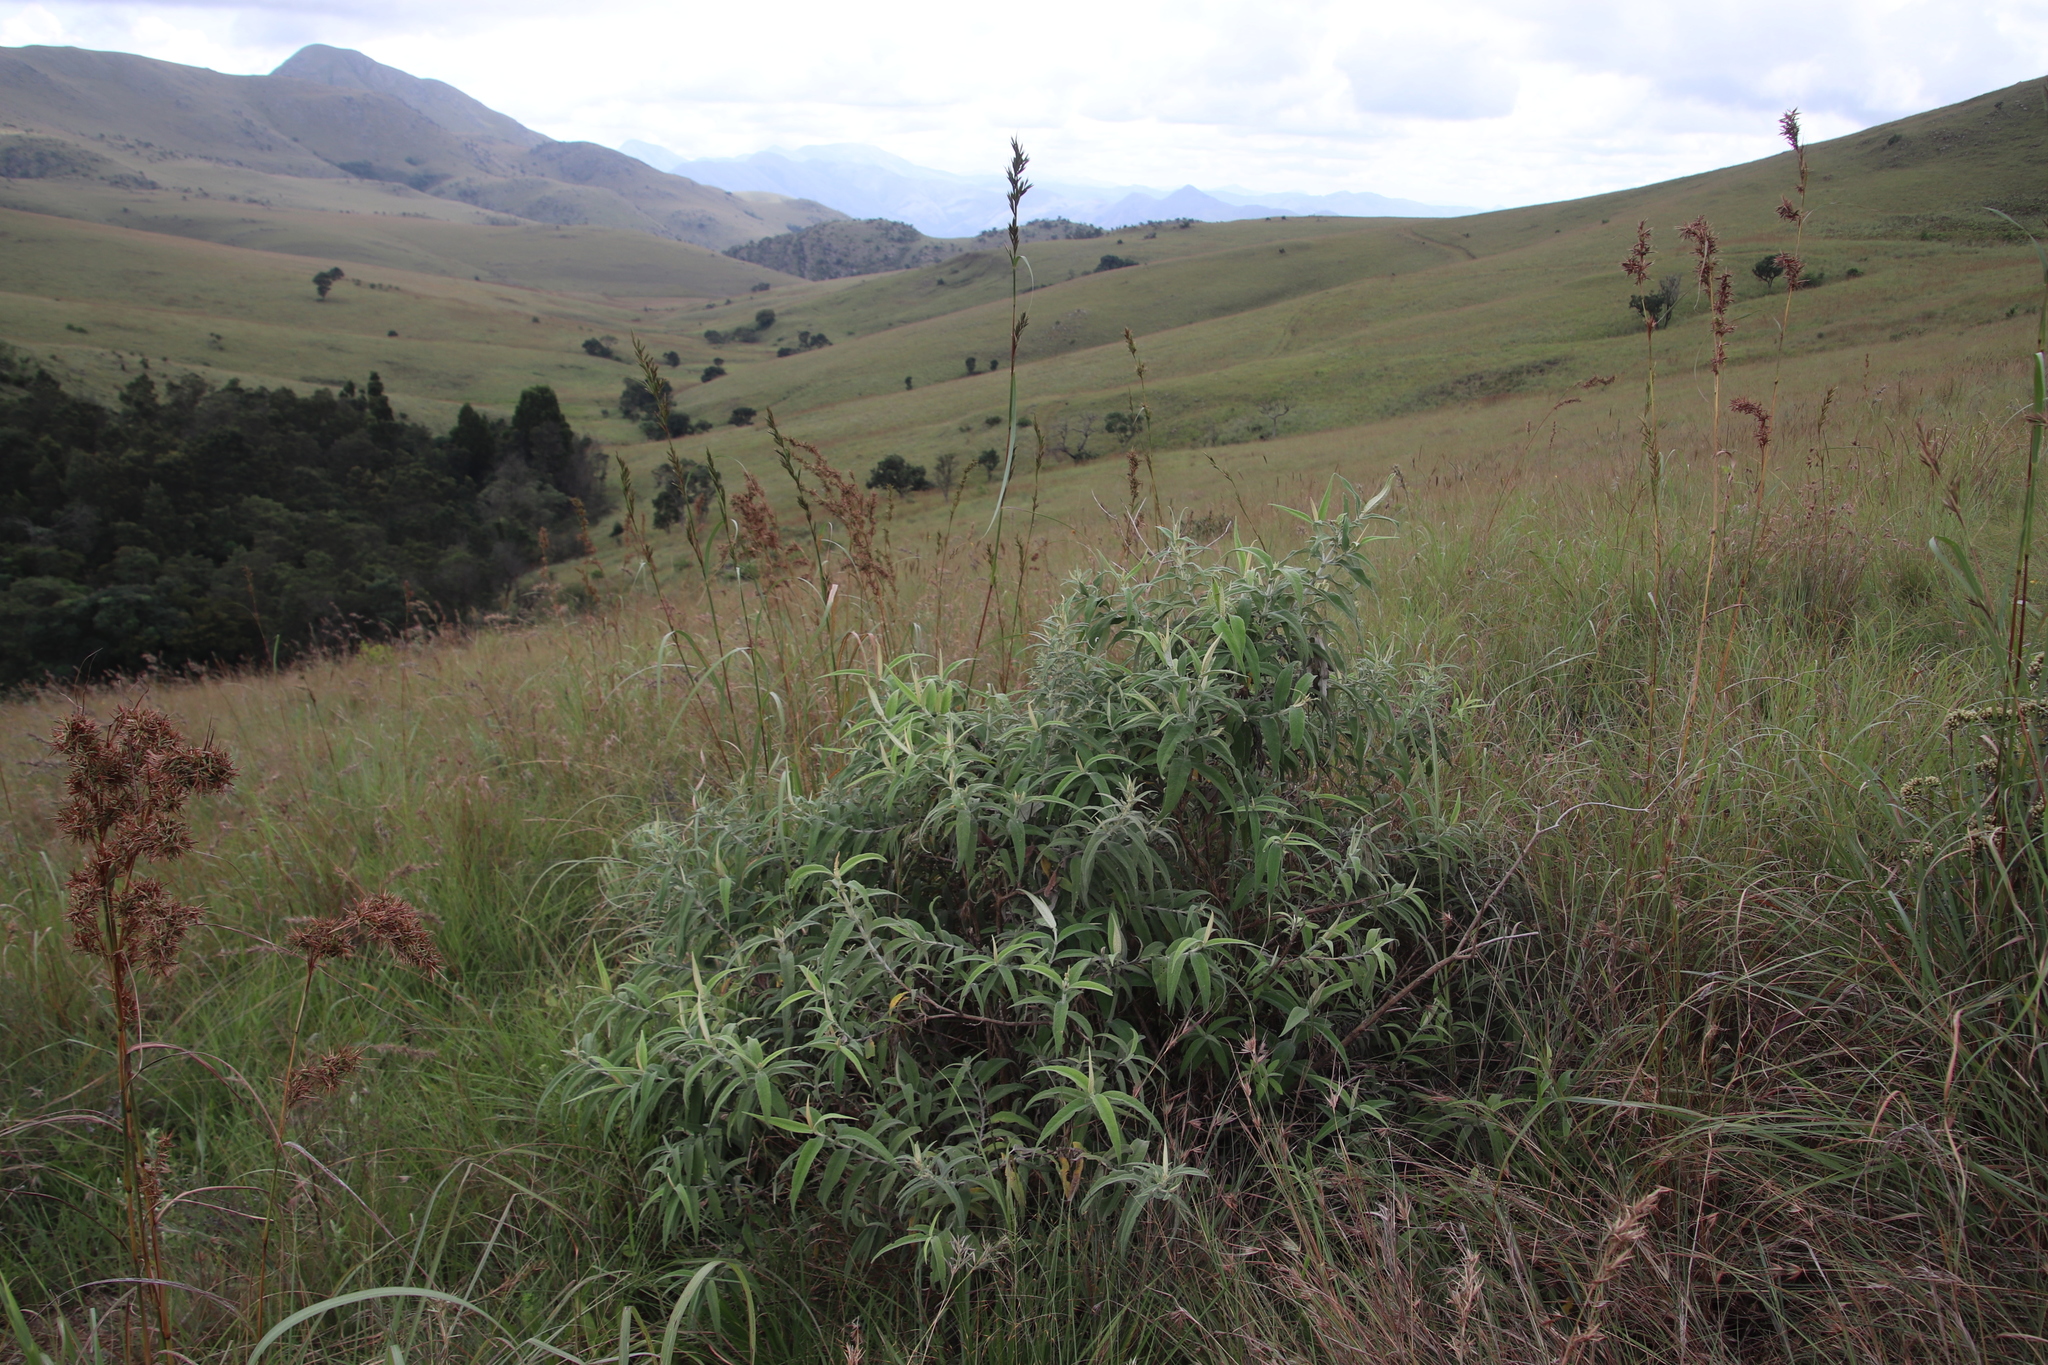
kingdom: Plantae
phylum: Tracheophyta
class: Magnoliopsida
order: Lamiales
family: Scrophulariaceae
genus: Buddleja
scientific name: Buddleja salviifolia
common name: Sagewood
